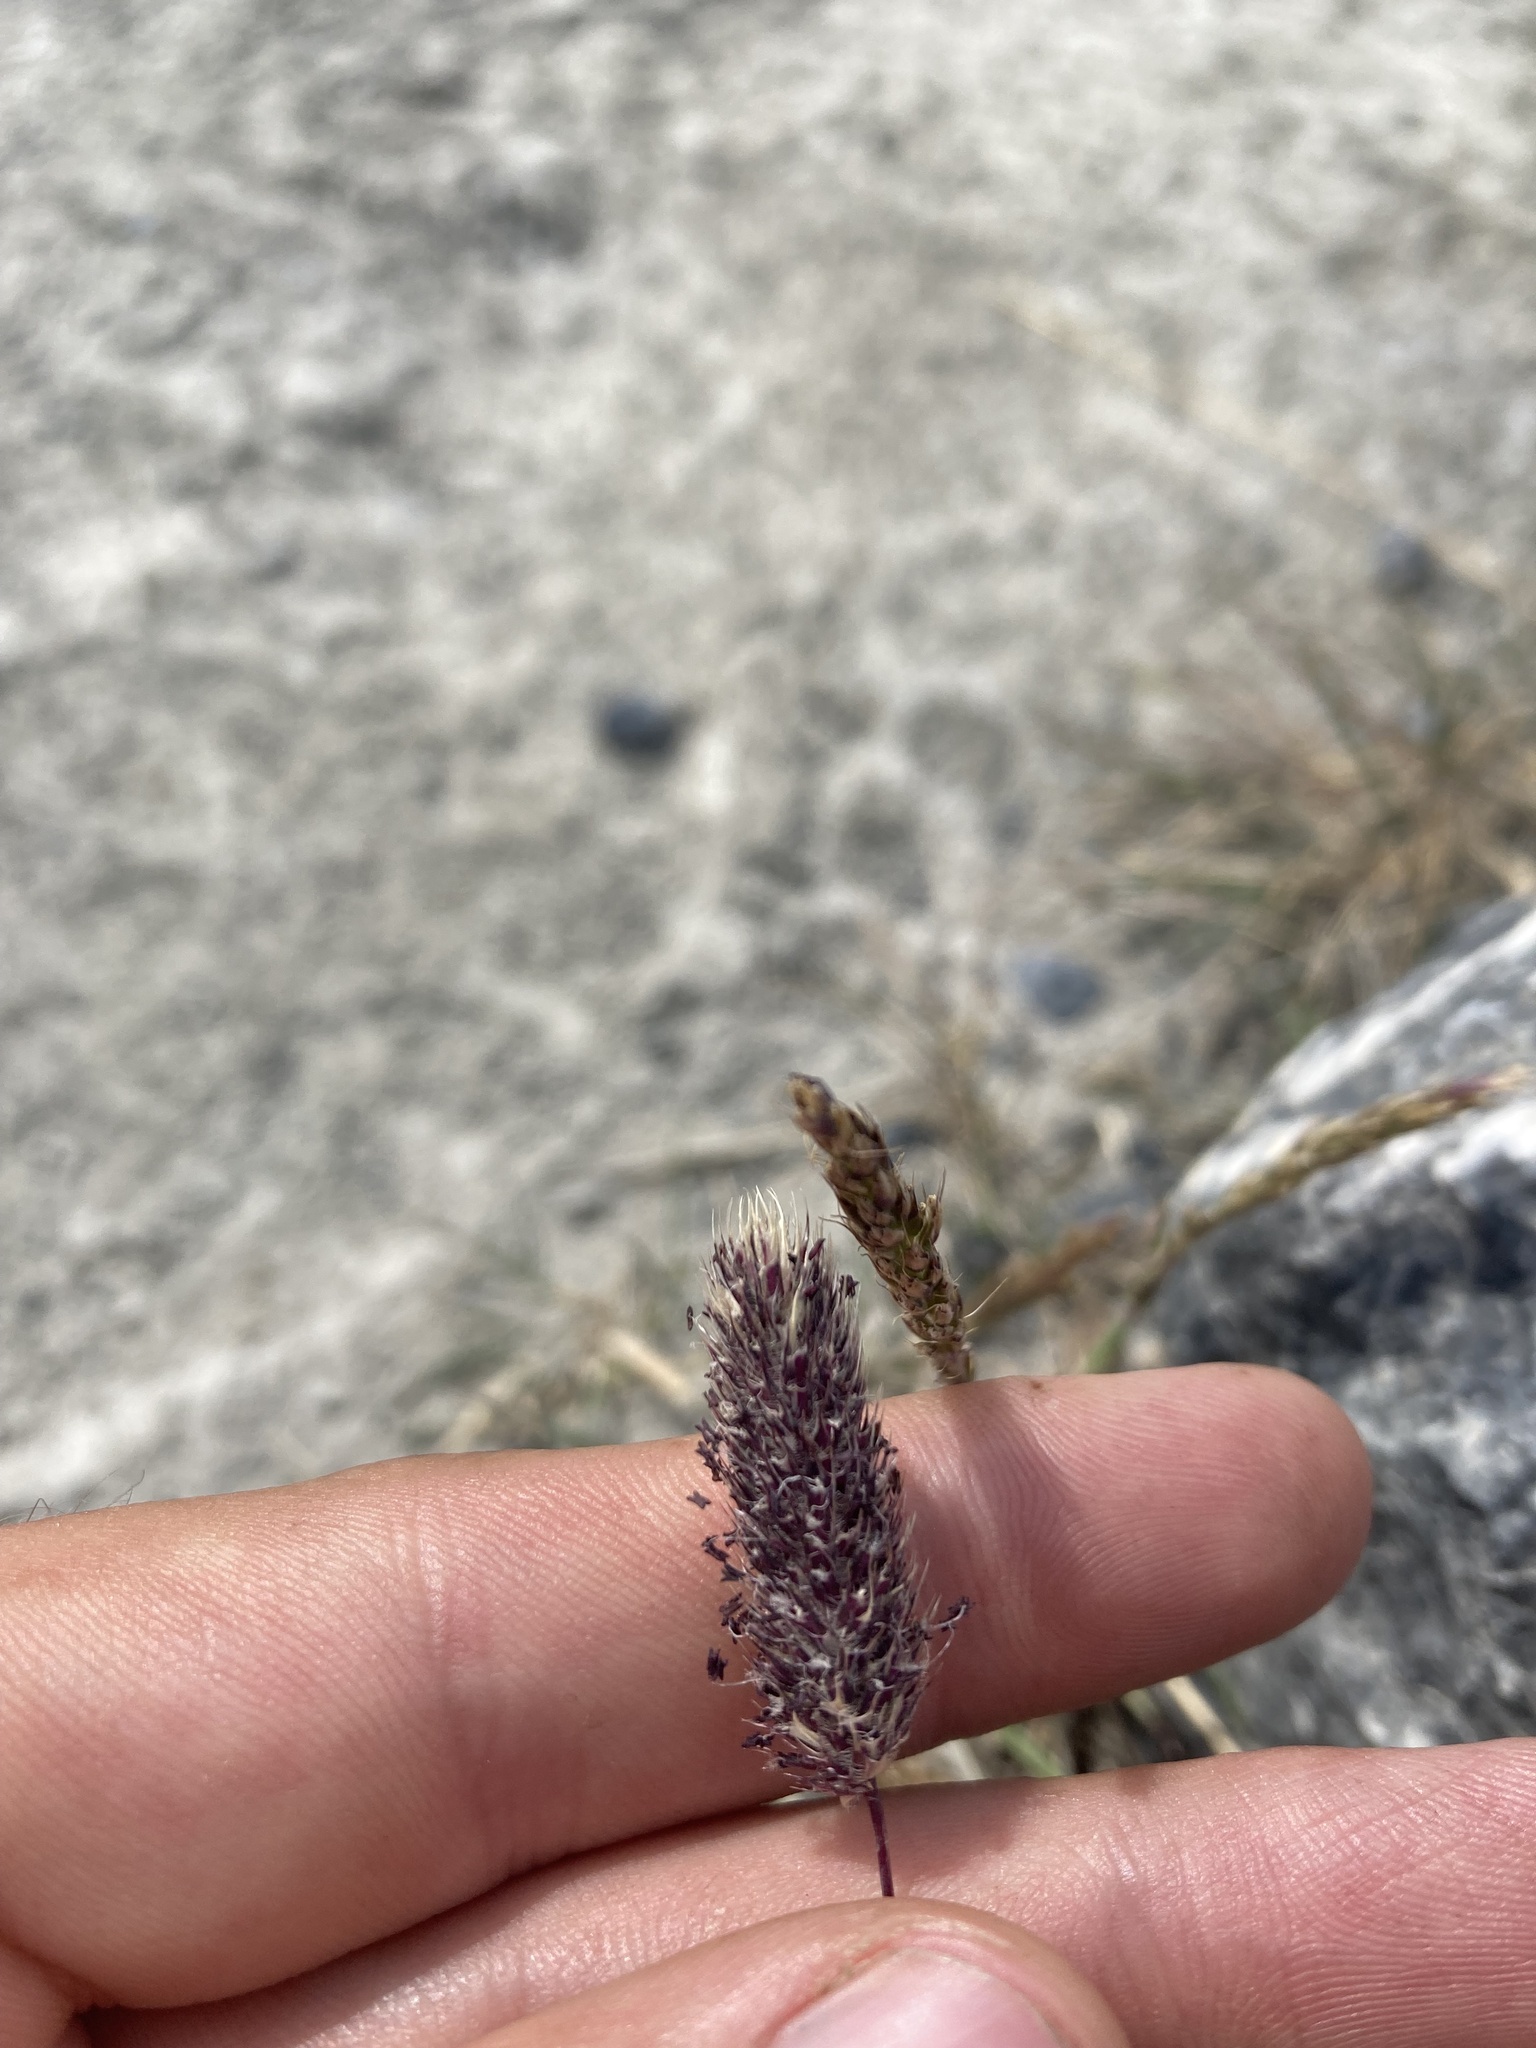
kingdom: Plantae
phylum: Tracheophyta
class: Liliopsida
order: Poales
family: Poaceae
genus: Phleum
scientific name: Phleum alpinum
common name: Alpine cat's-tail
